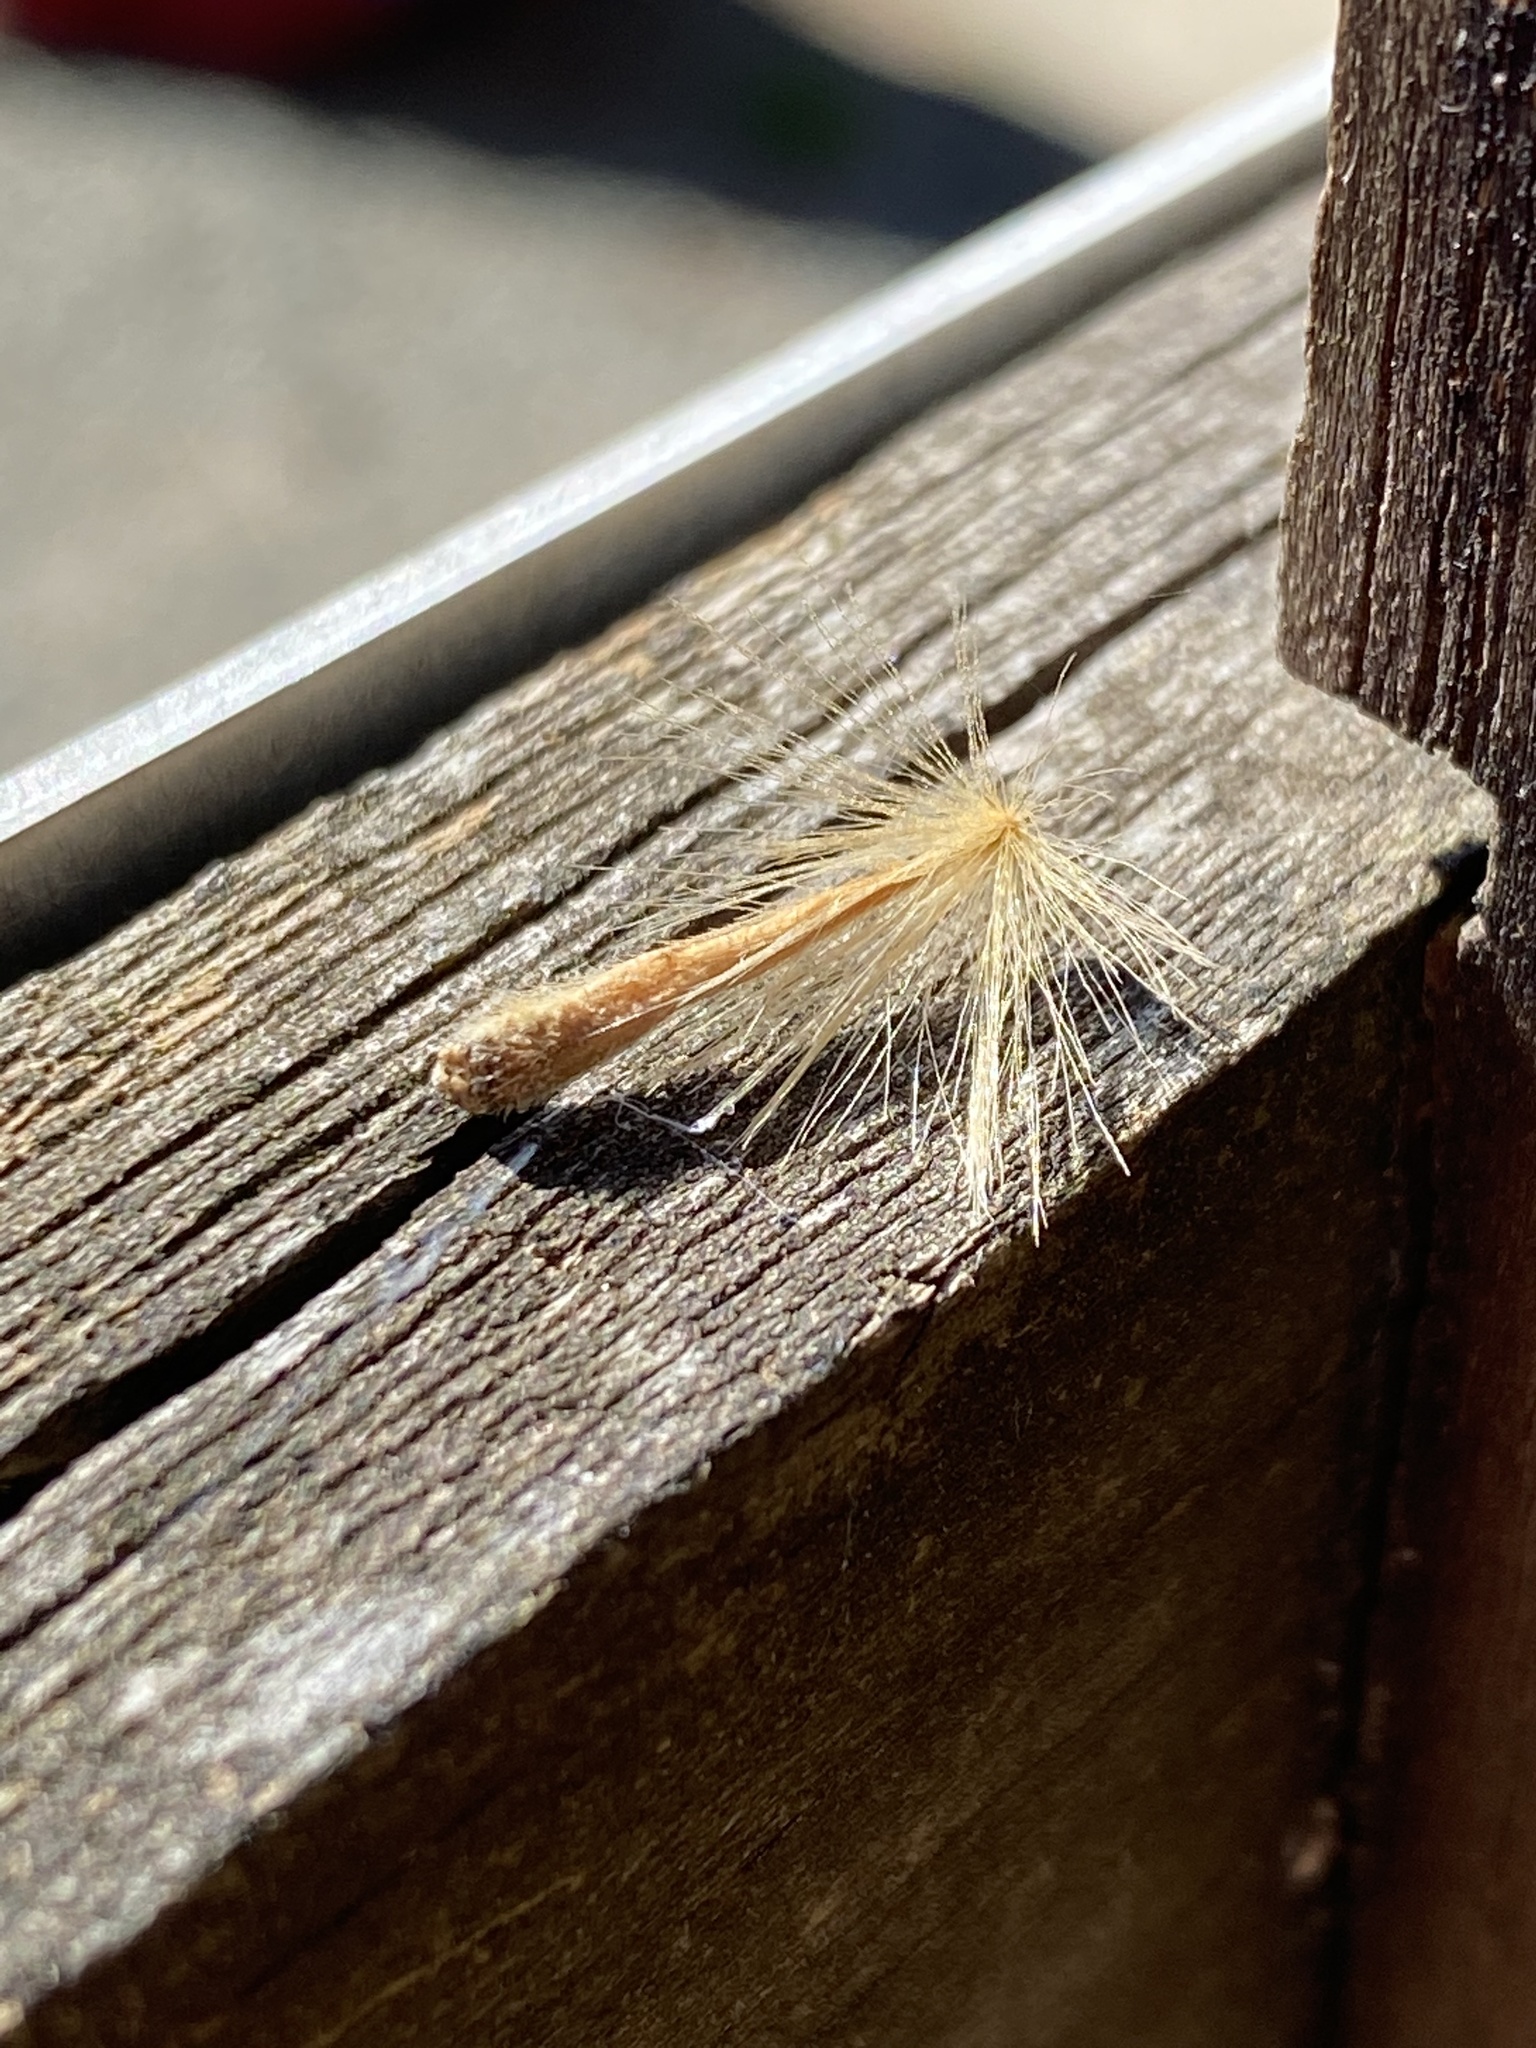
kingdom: Plantae
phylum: Tracheophyta
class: Magnoliopsida
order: Proteales
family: Platanaceae
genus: Platanus
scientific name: Platanus occidentalis
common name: American sycamore
